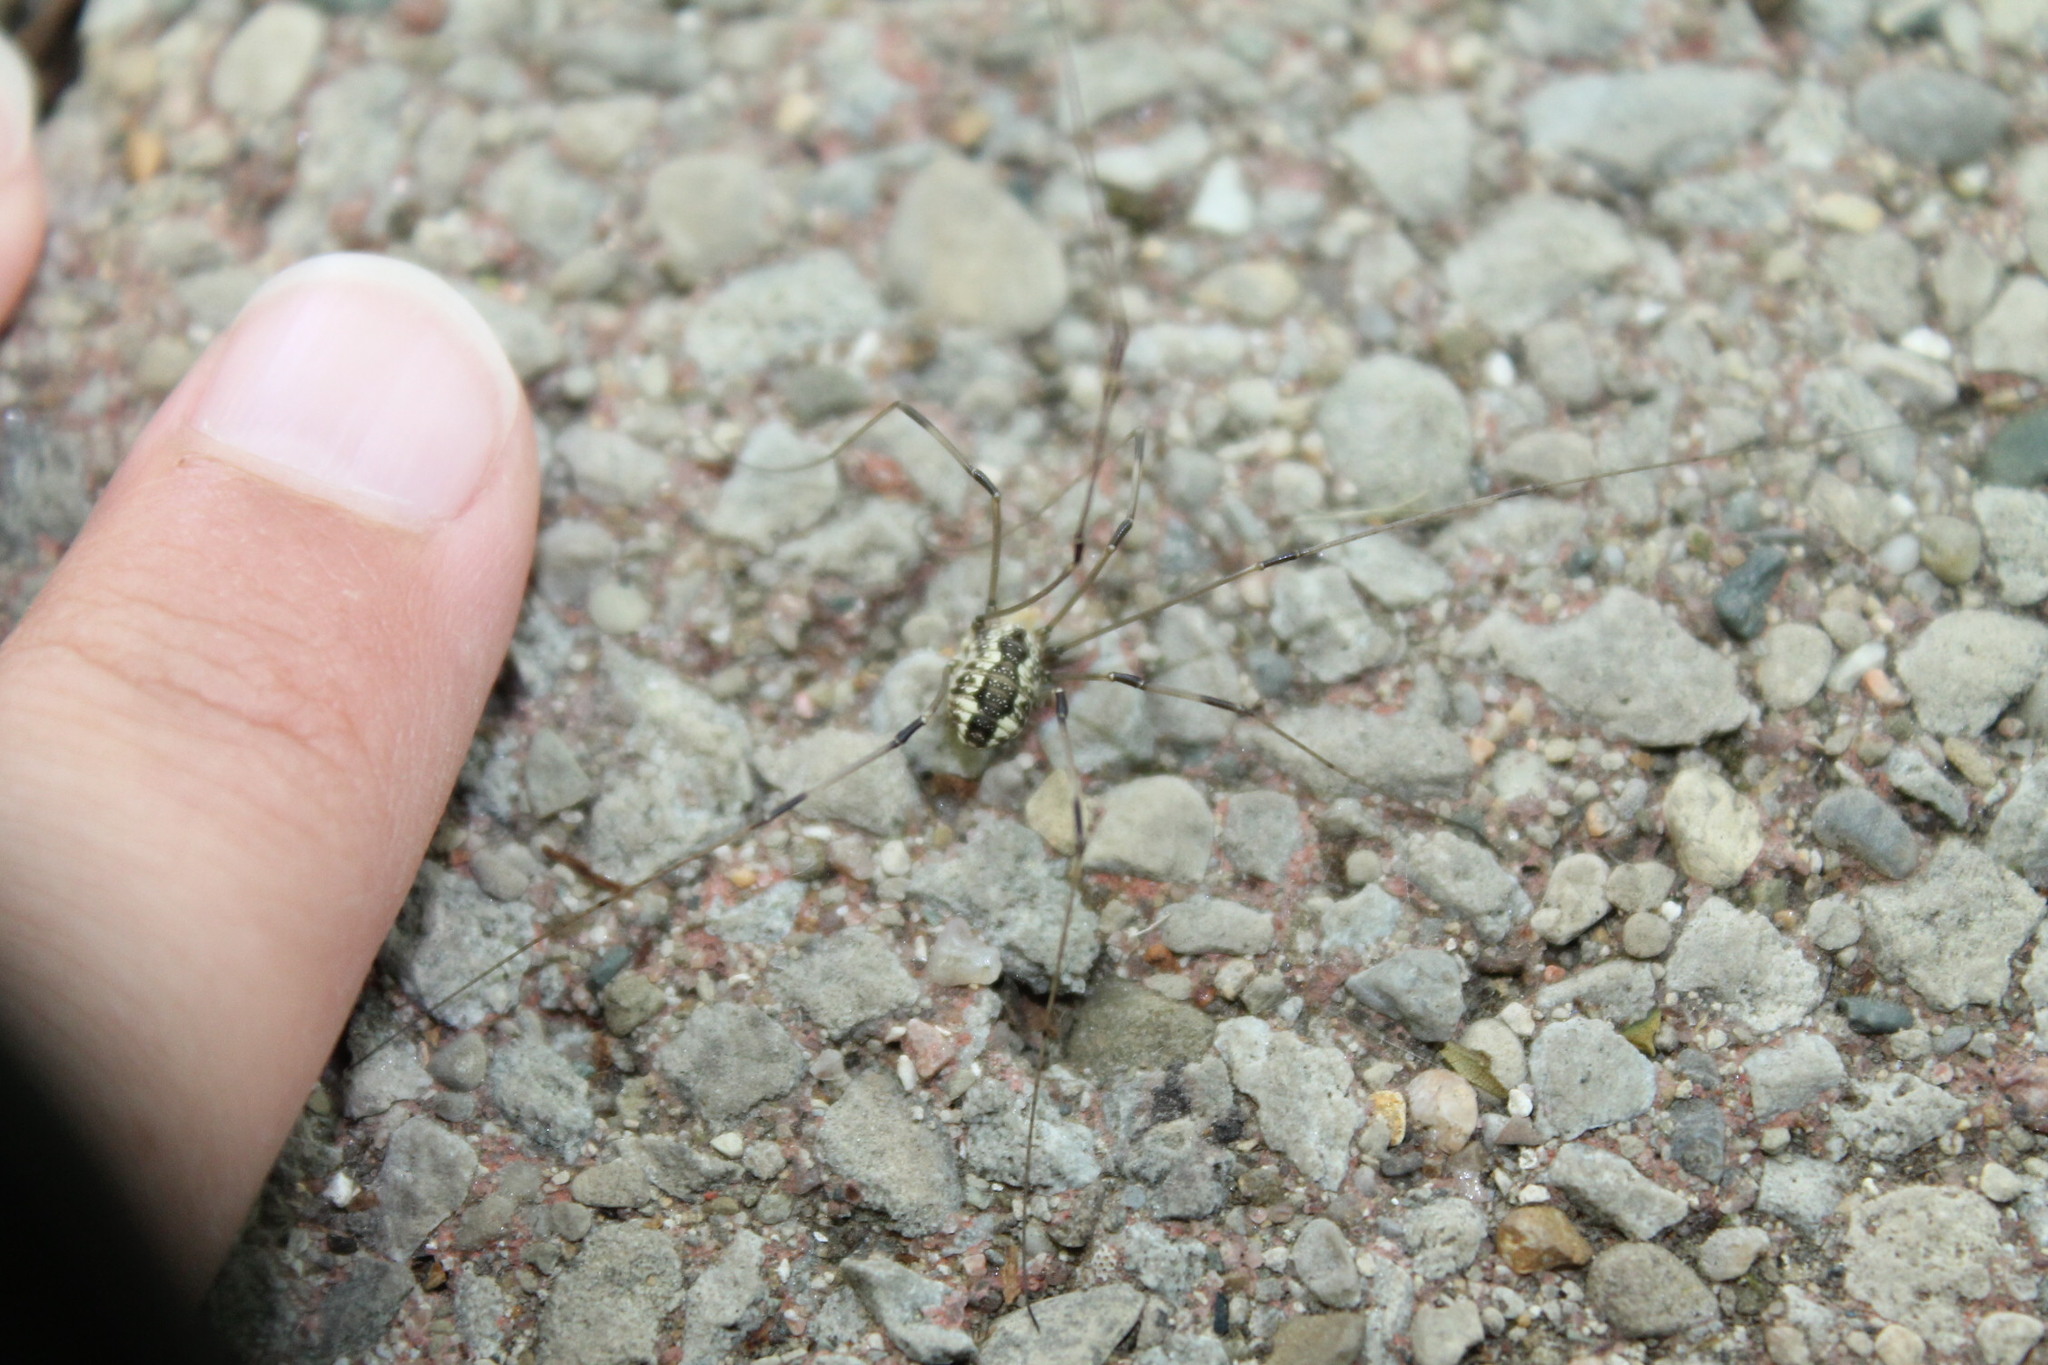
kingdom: Animalia
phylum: Arthropoda
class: Arachnida
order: Opiliones
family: Sclerosomatidae
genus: Leiobunum
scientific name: Leiobunum vittatum
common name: Eastern harvestman
